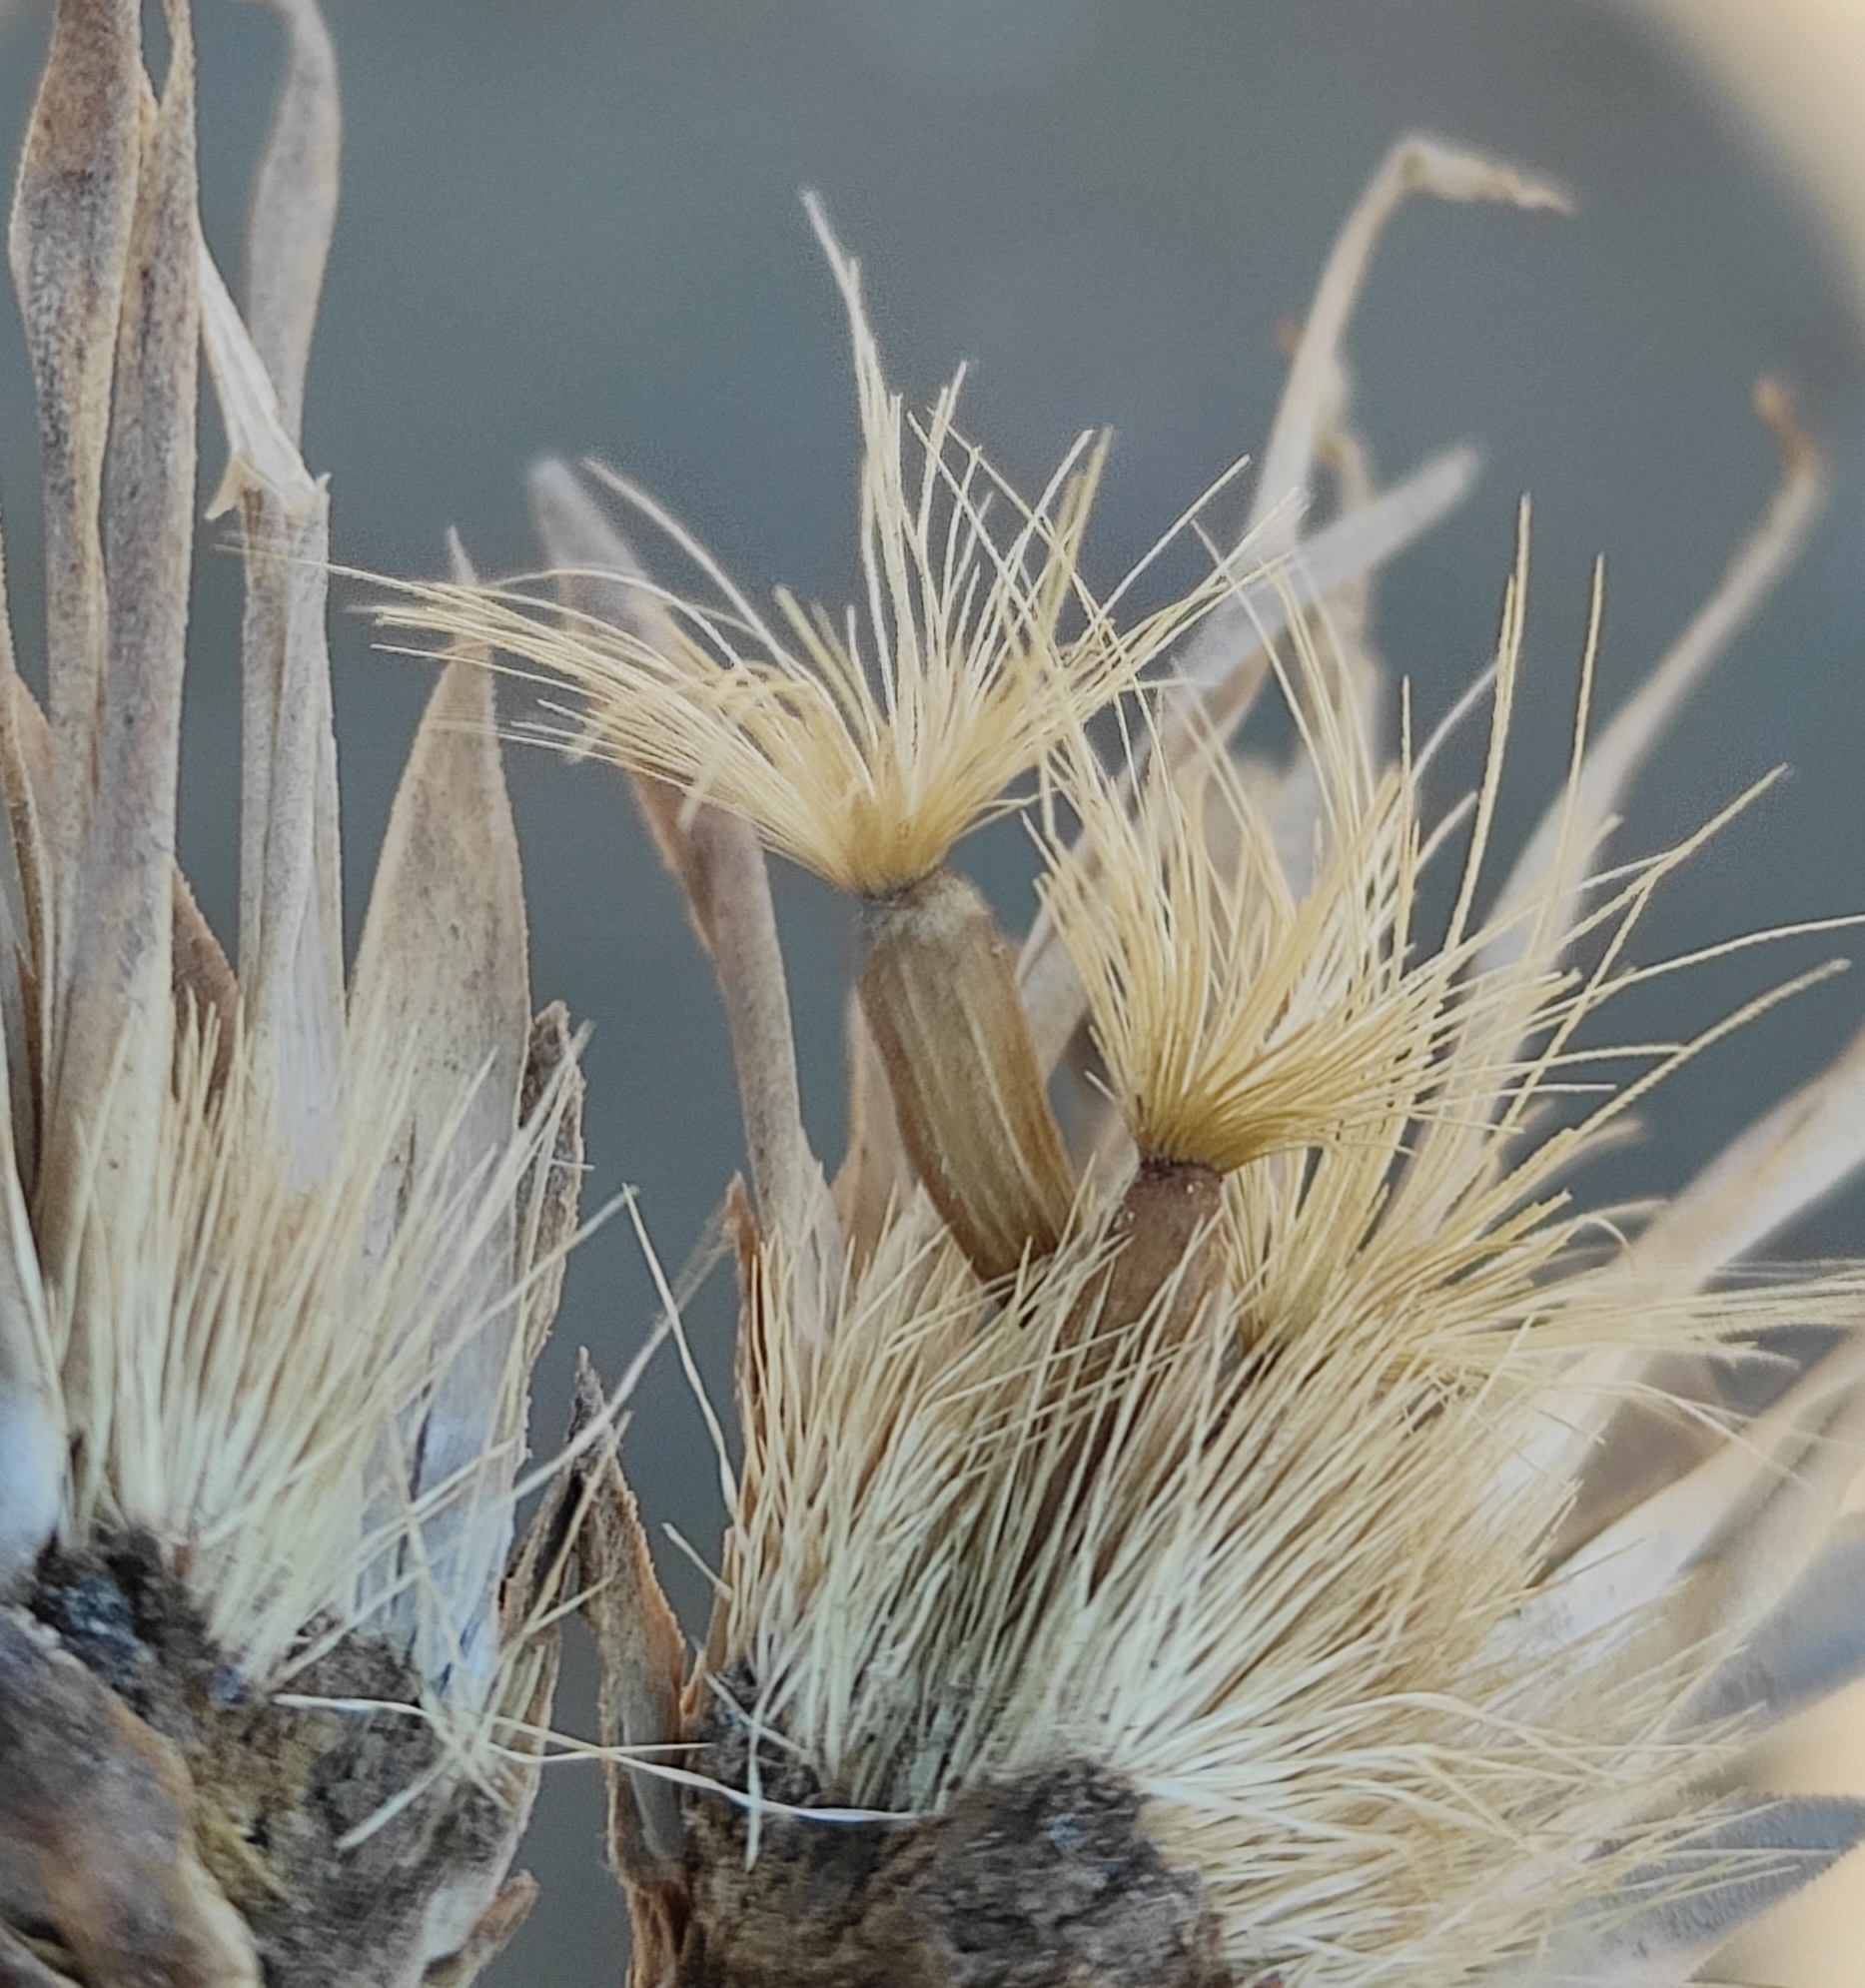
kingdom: Plantae
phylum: Tracheophyta
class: Magnoliopsida
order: Asterales
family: Asteraceae
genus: Serratula
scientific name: Serratula coronata
